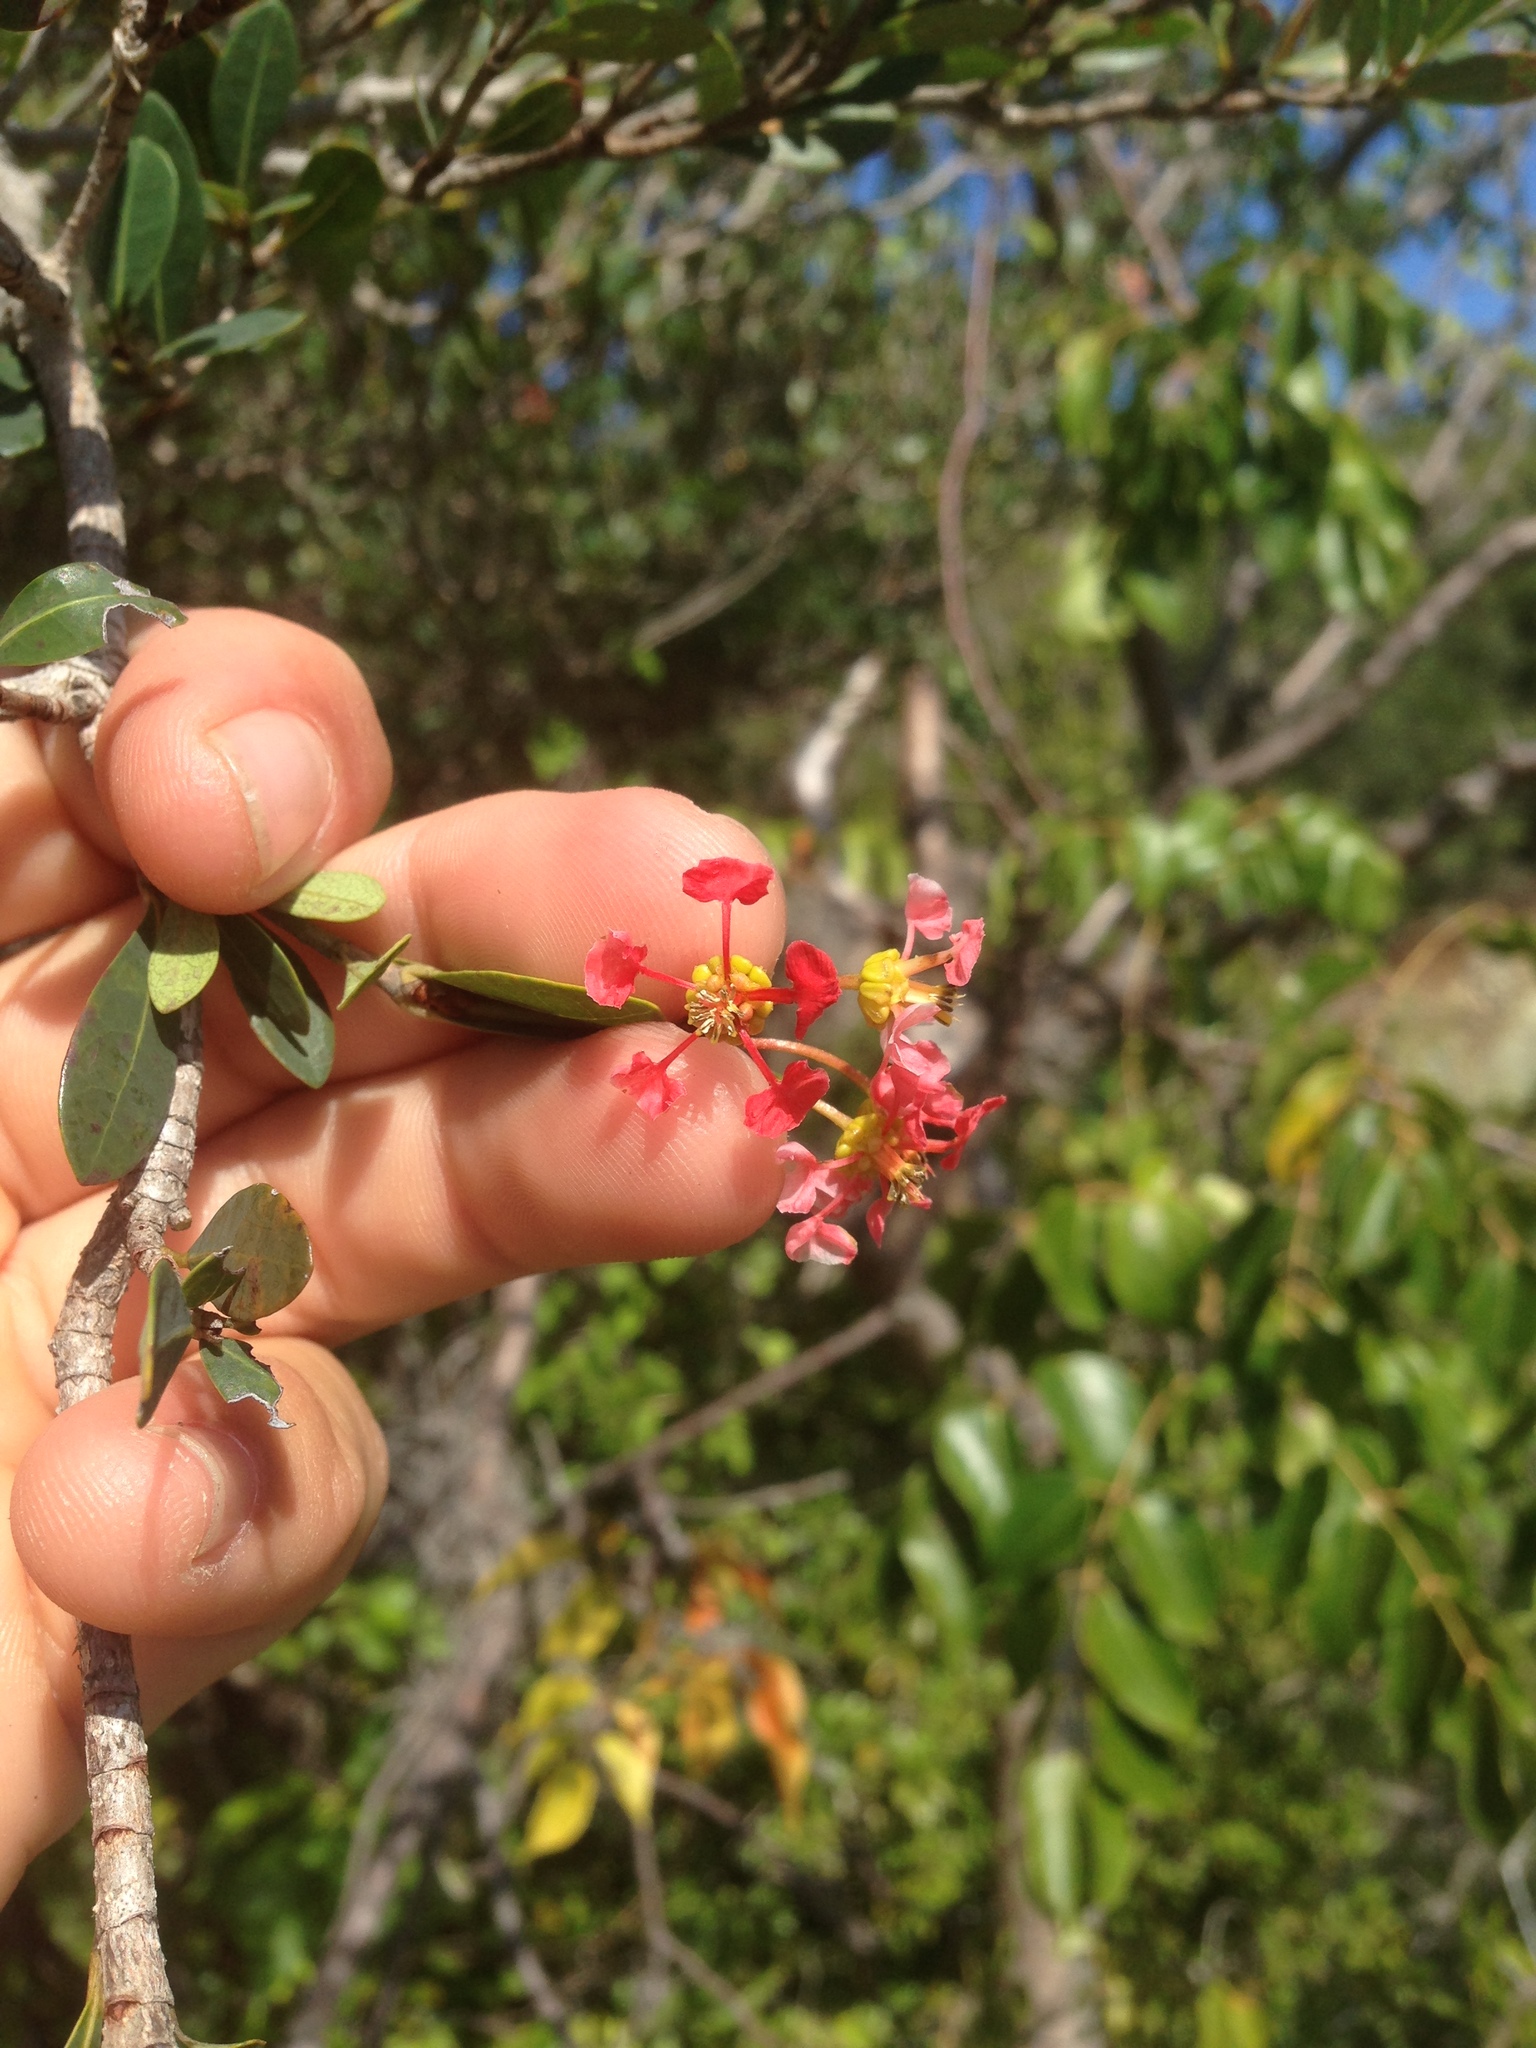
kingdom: Plantae
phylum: Tracheophyta
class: Magnoliopsida
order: Malpighiales
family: Malpighiaceae
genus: Byrsonima
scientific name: Byrsonima lucida
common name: Clam-cherry
